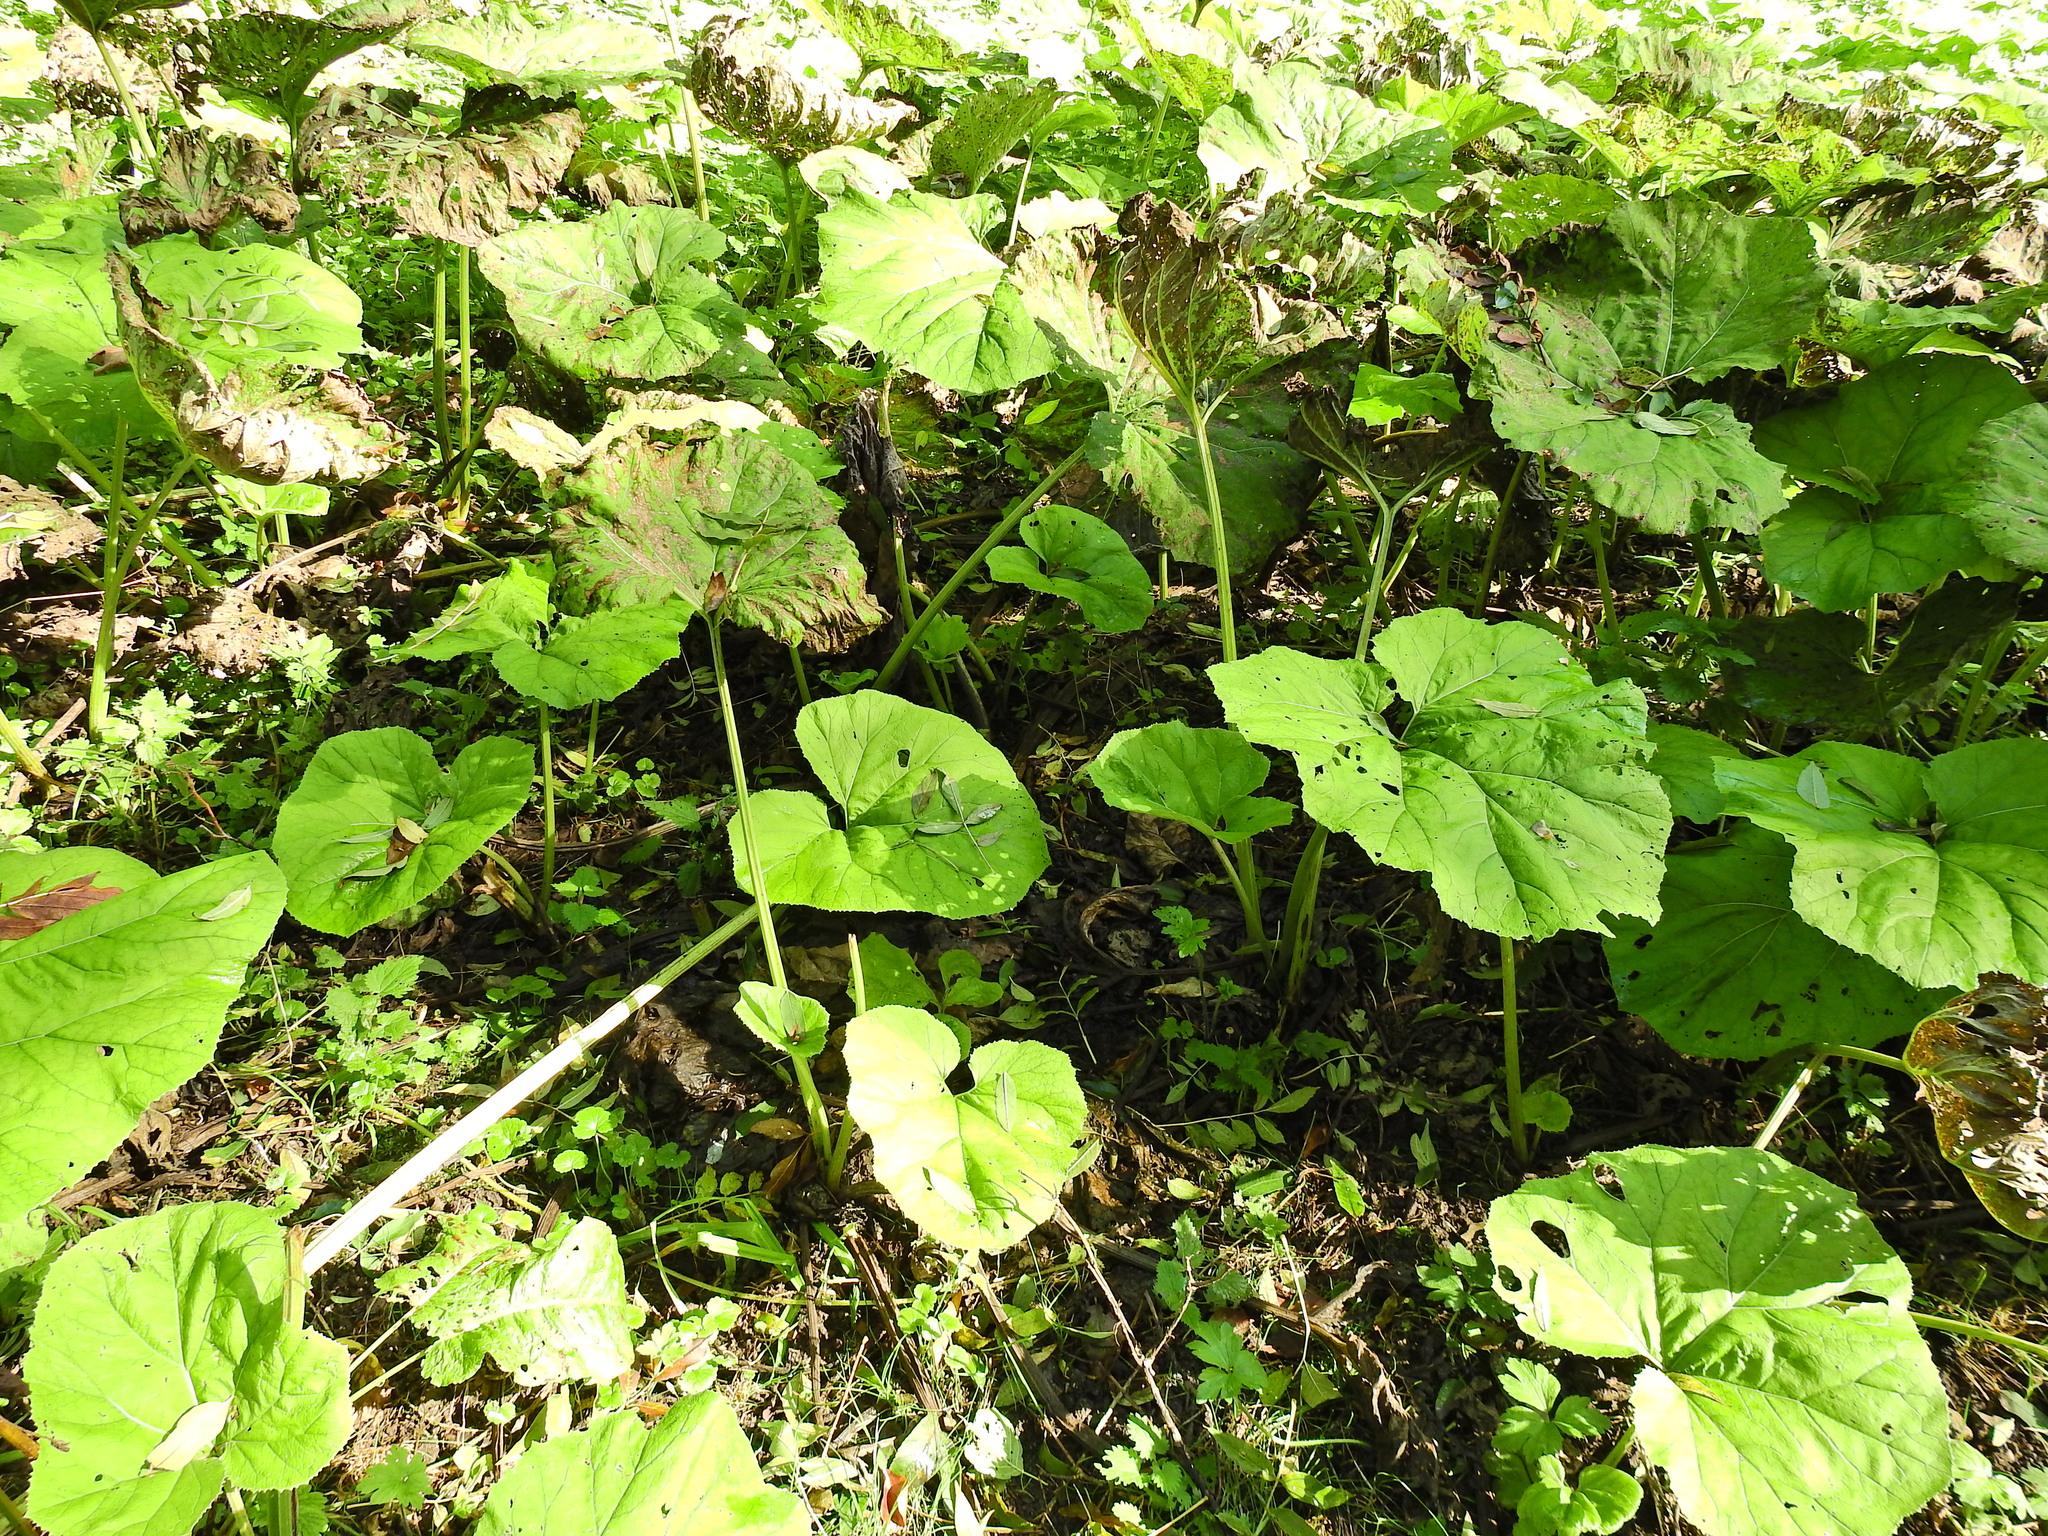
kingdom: Plantae
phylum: Tracheophyta
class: Magnoliopsida
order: Asterales
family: Asteraceae
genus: Petasites
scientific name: Petasites hybridus
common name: Butterbur
